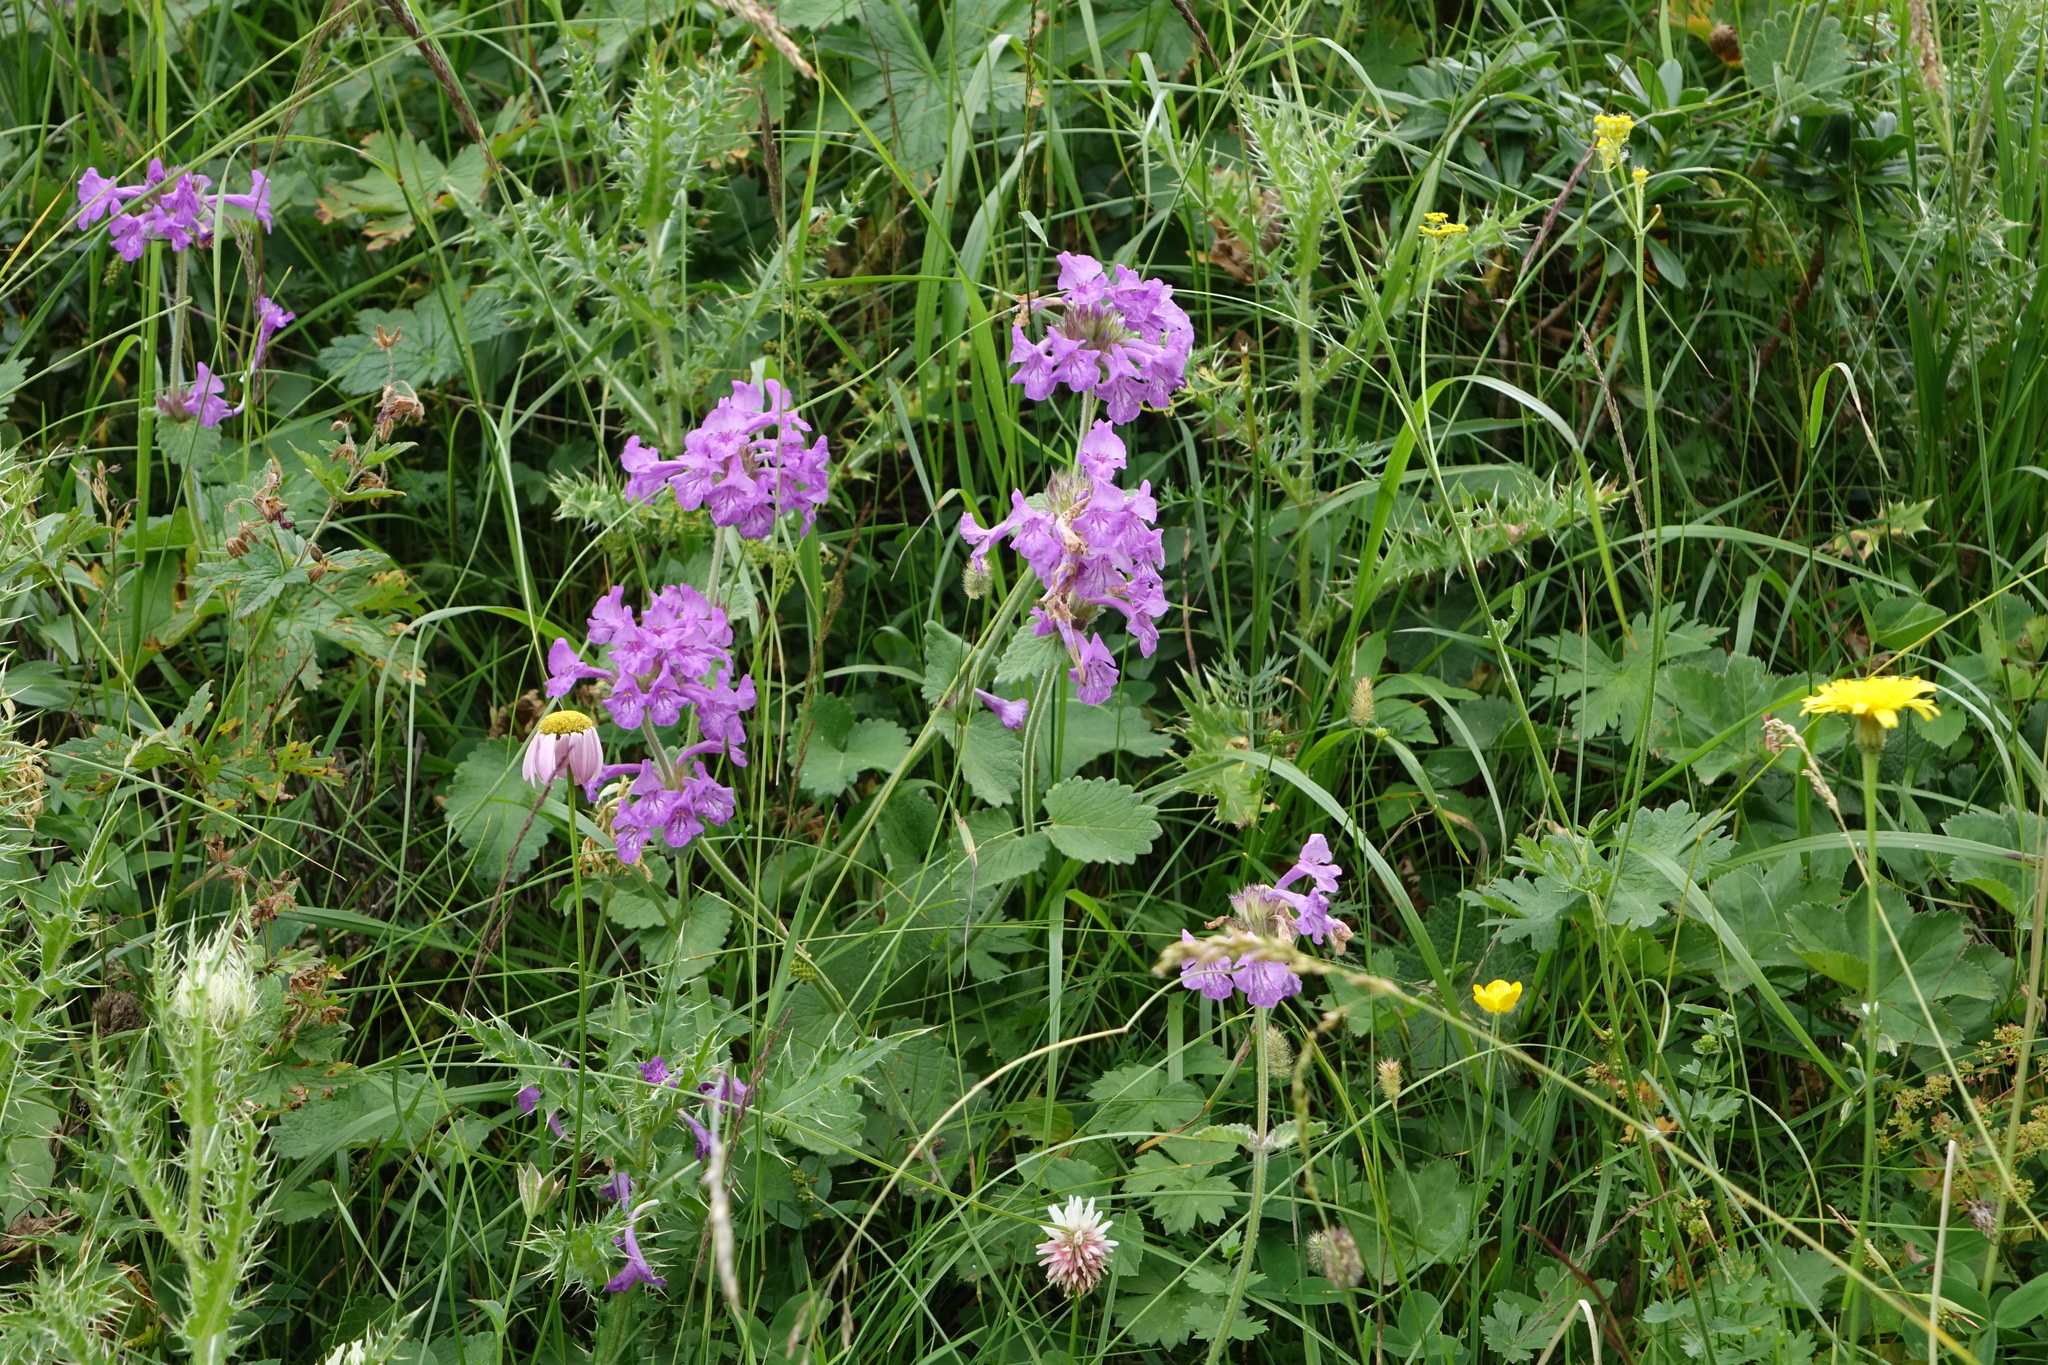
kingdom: Plantae
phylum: Tracheophyta
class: Magnoliopsida
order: Lamiales
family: Lamiaceae
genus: Betonica
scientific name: Betonica macrantha
